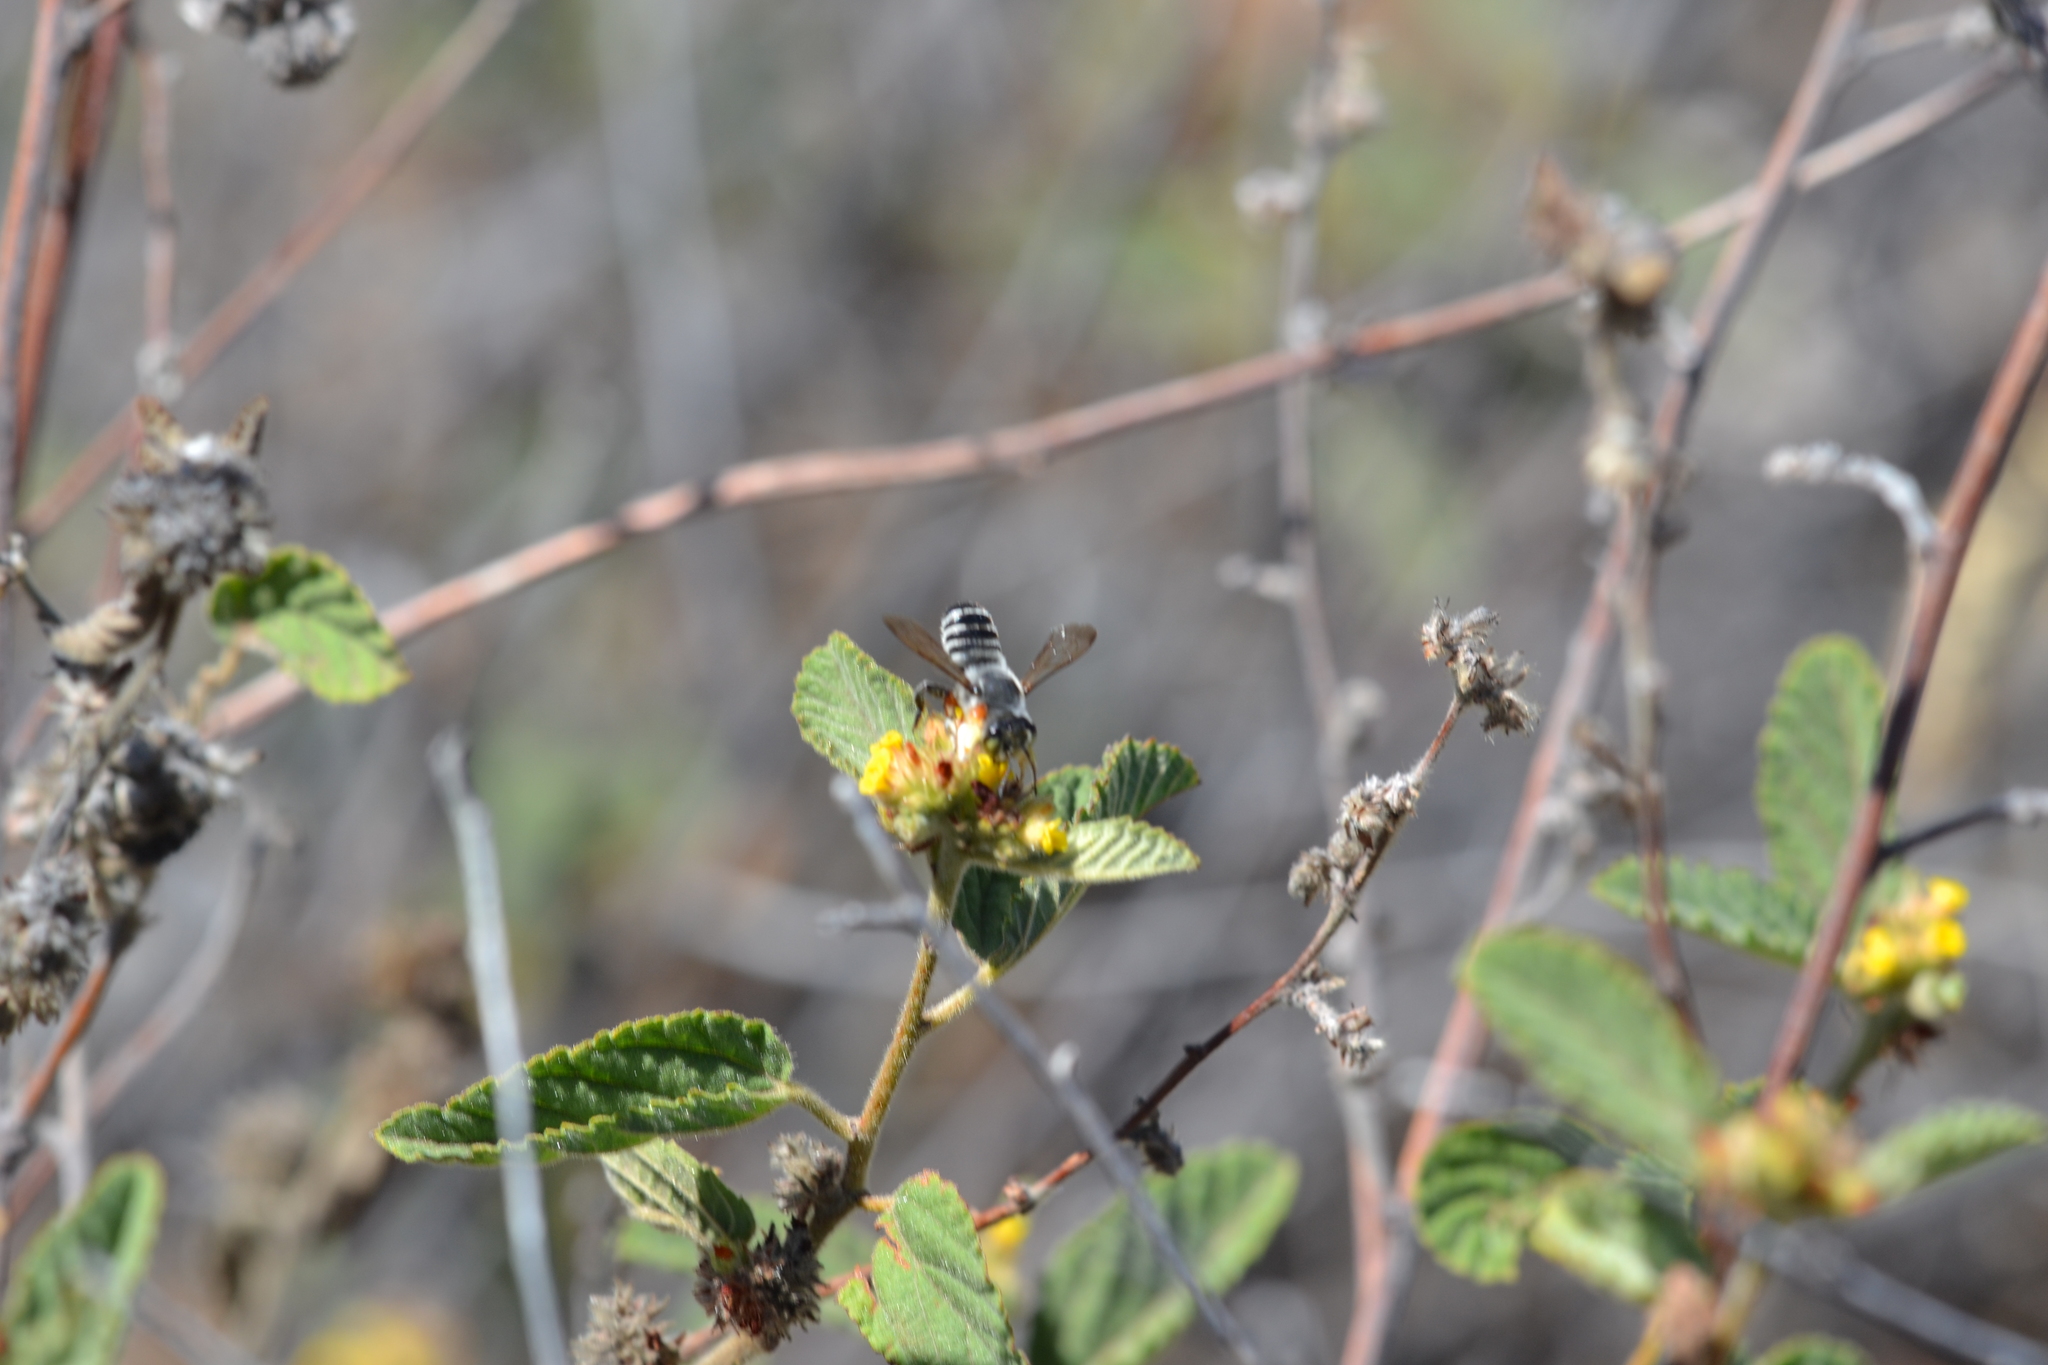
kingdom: Animalia
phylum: Arthropoda
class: Insecta
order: Hymenoptera
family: Megachilidae
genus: Megachile
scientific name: Megachile policaris
